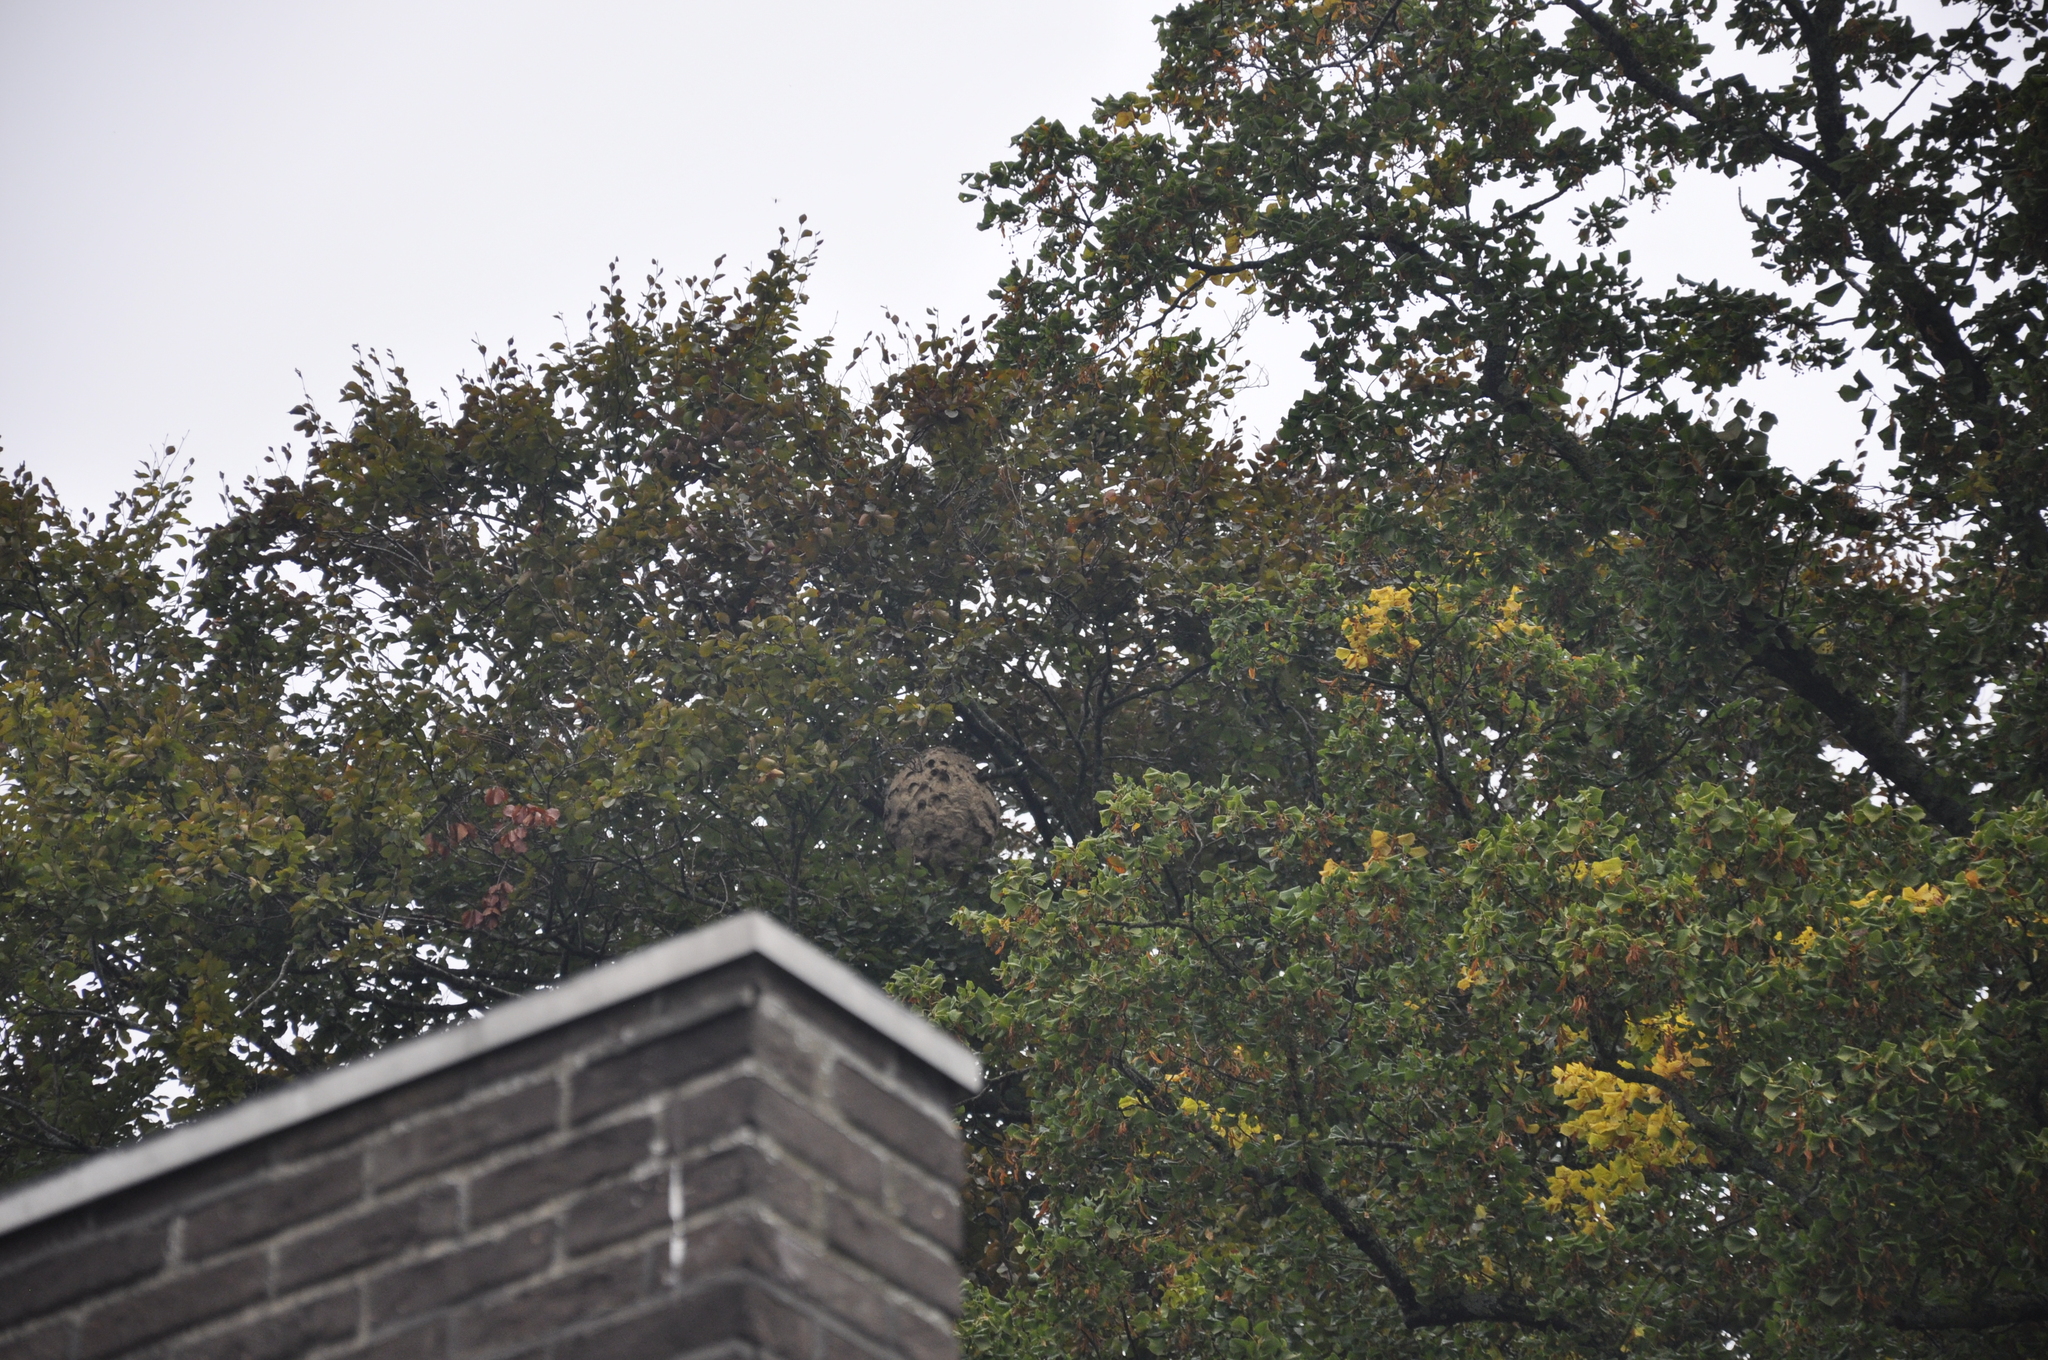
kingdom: Animalia
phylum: Arthropoda
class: Insecta
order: Hymenoptera
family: Vespidae
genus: Vespa
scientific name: Vespa velutina
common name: Asian hornet
